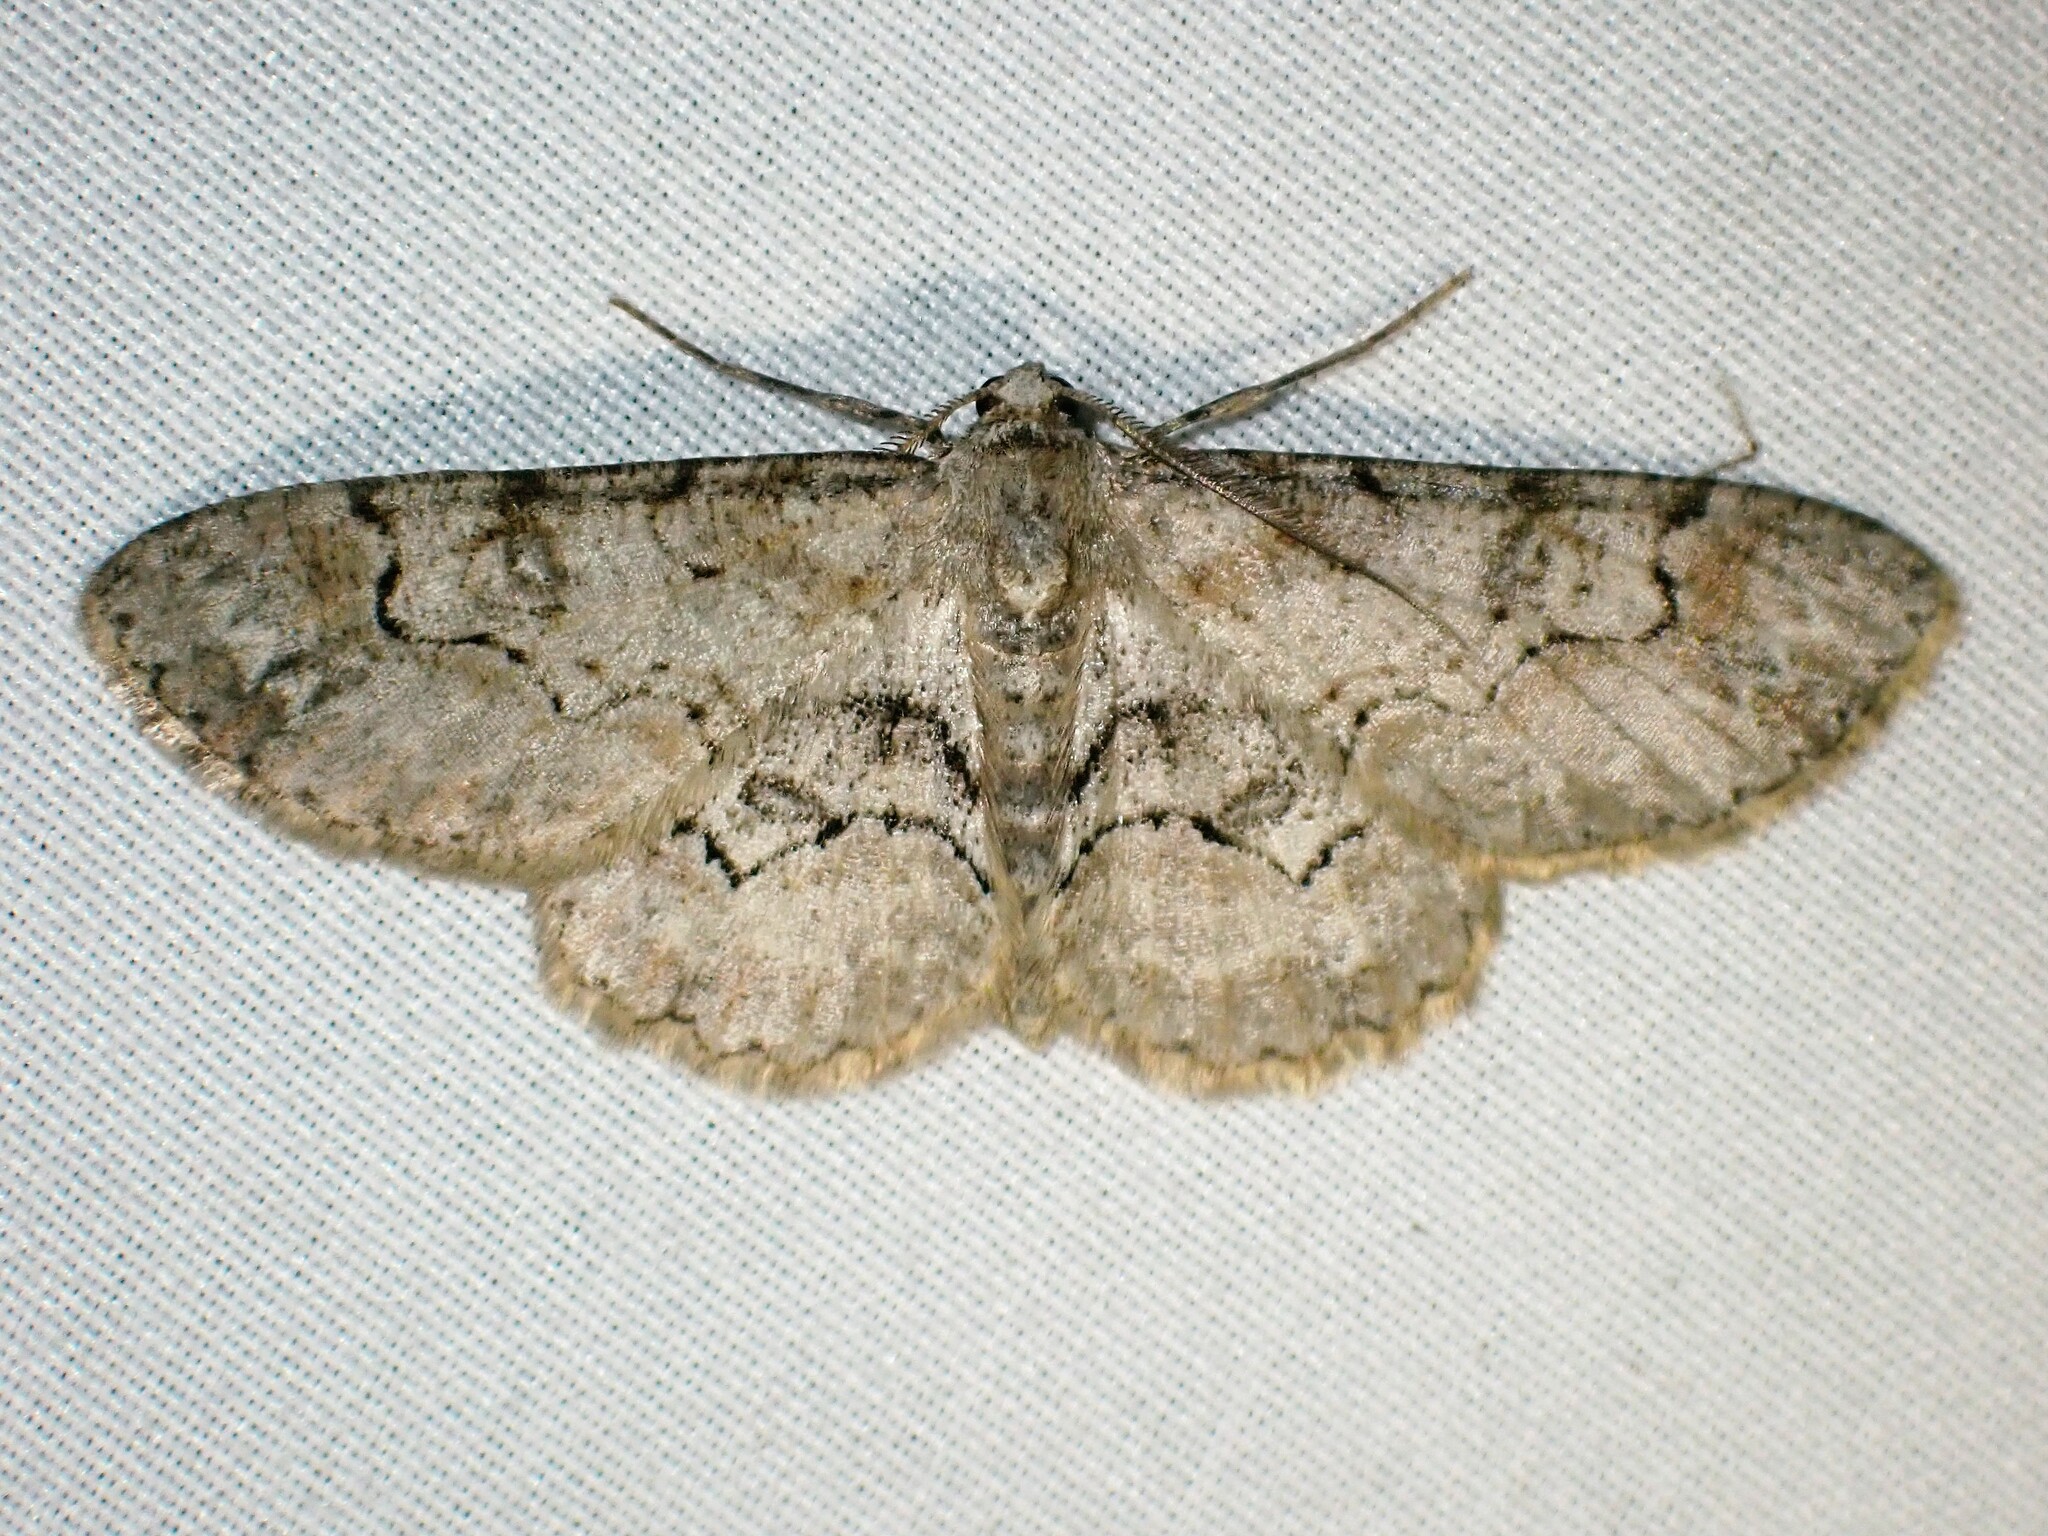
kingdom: Animalia
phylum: Arthropoda
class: Insecta
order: Lepidoptera
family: Geometridae
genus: Iridopsis
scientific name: Iridopsis larvaria
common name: Bent-line gray
